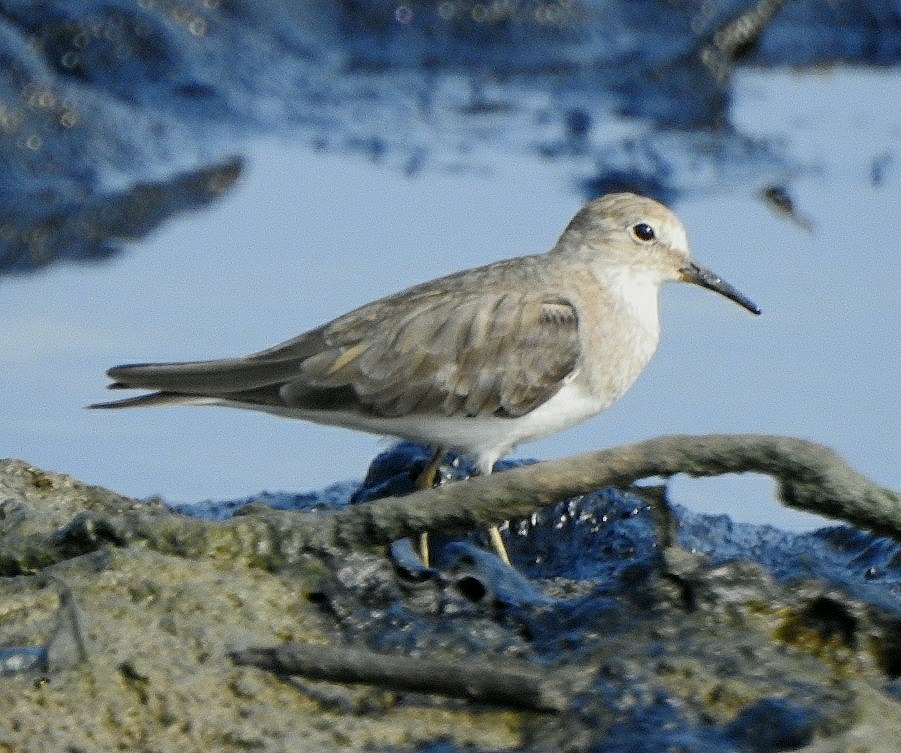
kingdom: Animalia
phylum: Chordata
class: Aves
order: Charadriiformes
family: Scolopacidae
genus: Calidris
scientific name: Calidris temminckii
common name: Temminck's stint
